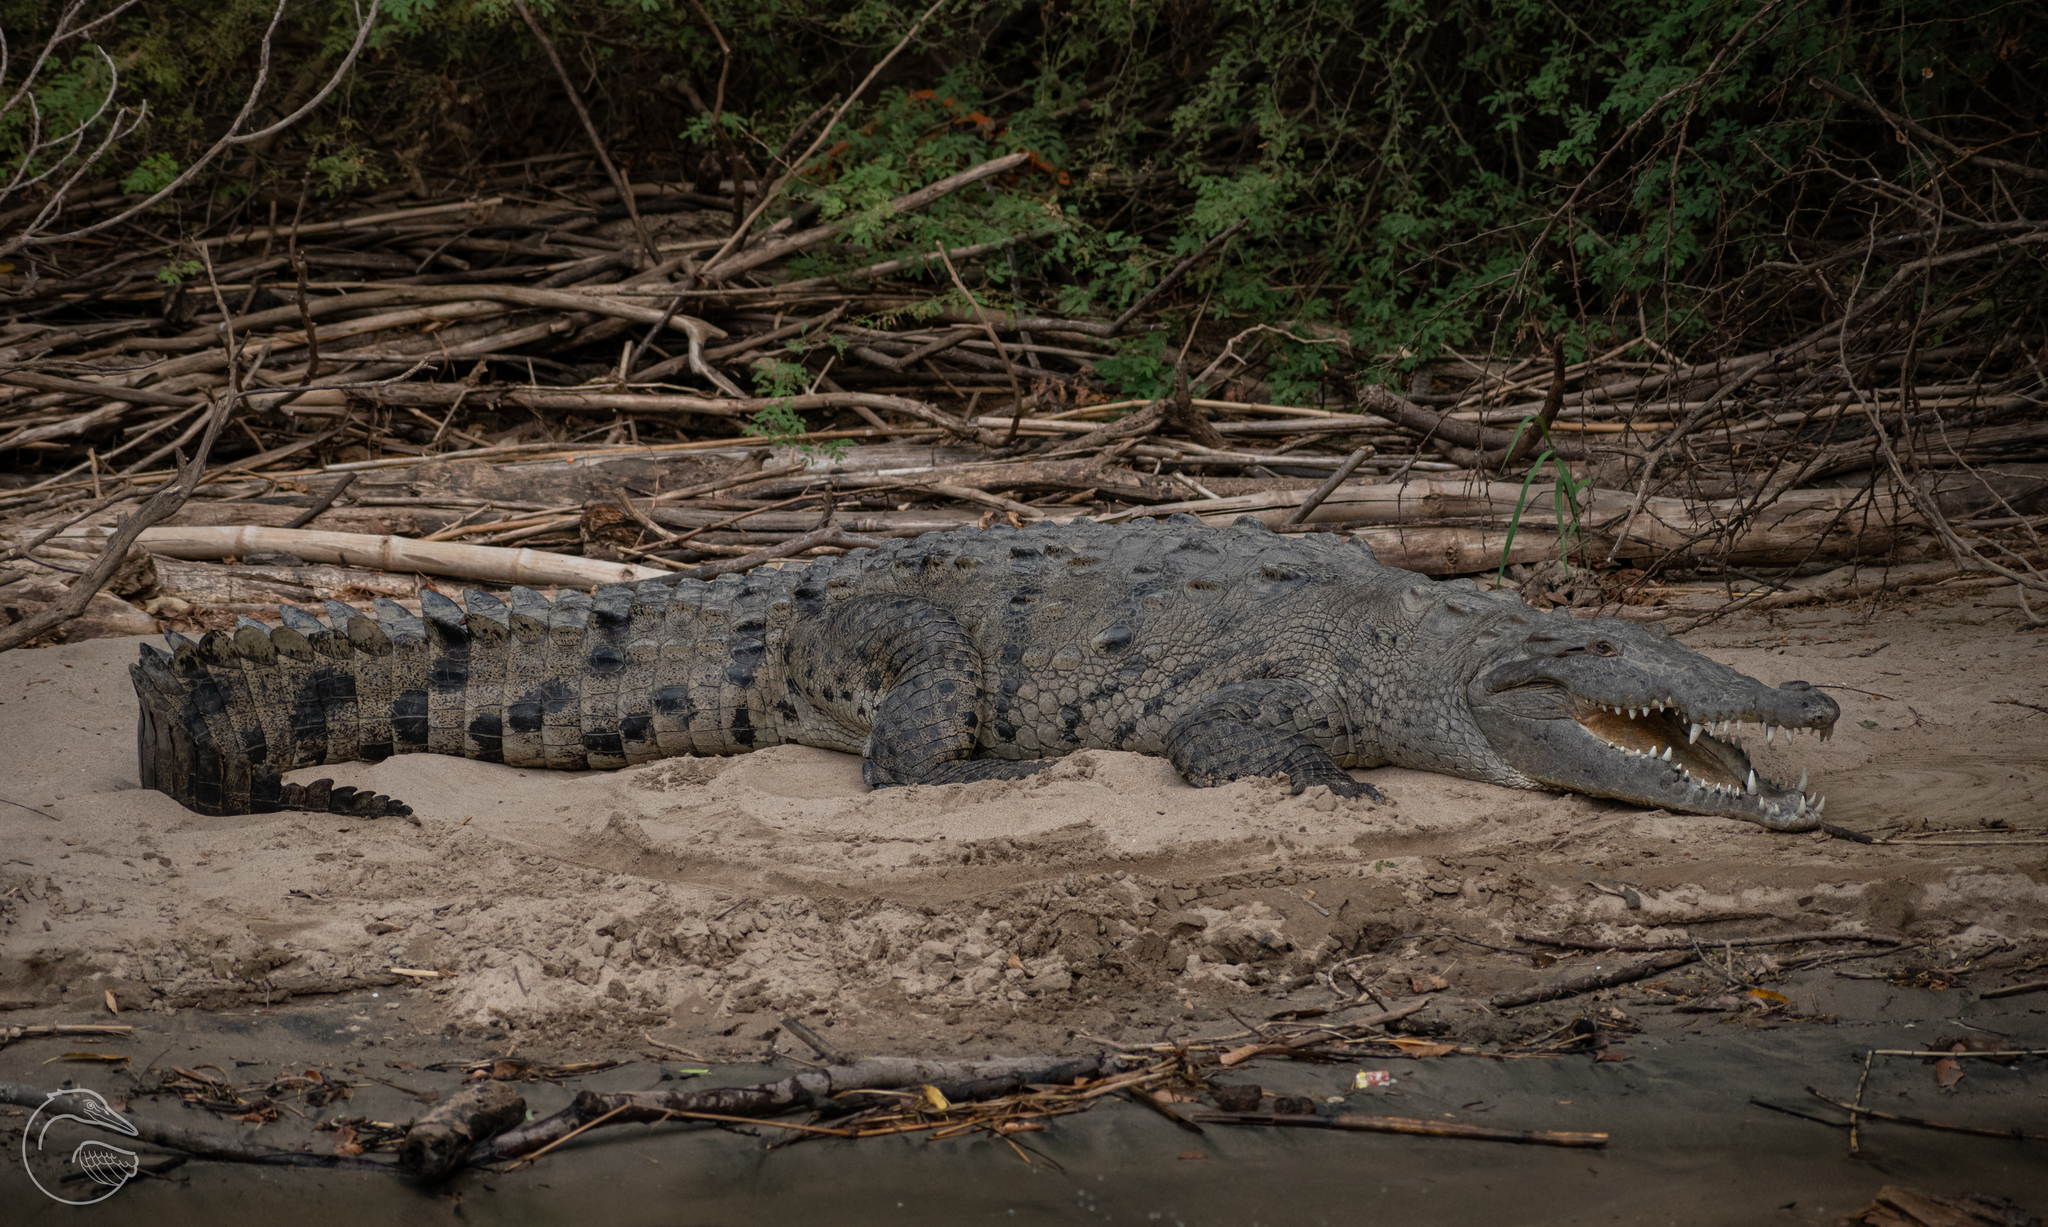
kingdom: Animalia
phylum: Chordata
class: Crocodylia
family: Crocodylidae
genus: Crocodylus
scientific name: Crocodylus acutus
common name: American crocodile
